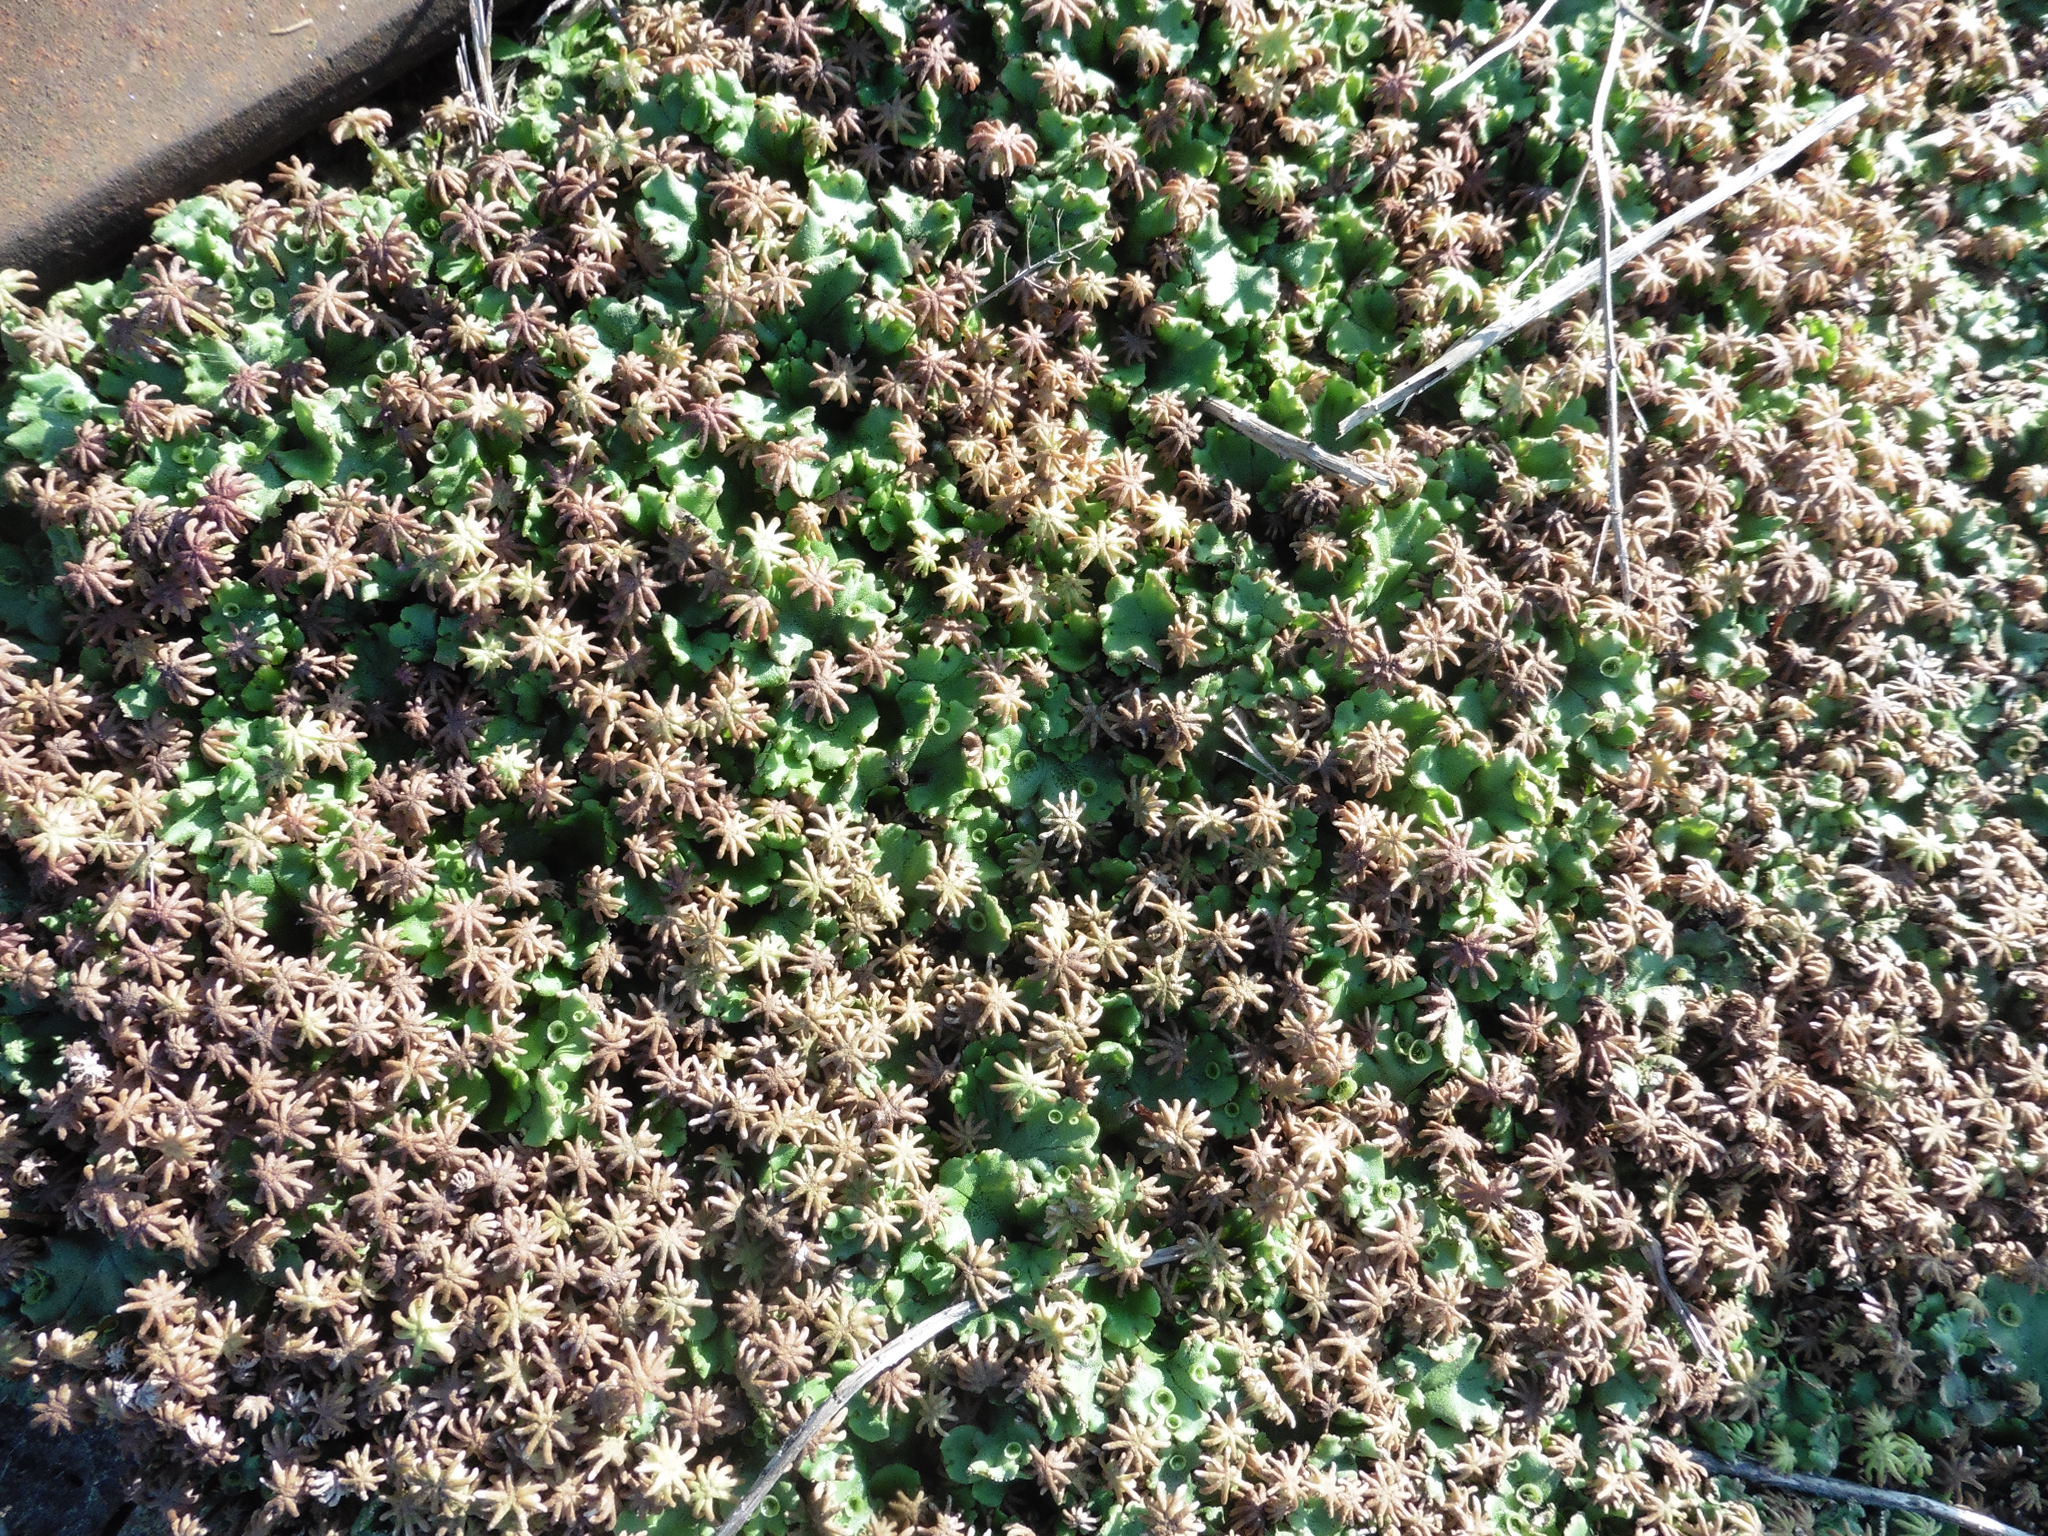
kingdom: Plantae
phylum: Marchantiophyta
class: Marchantiopsida
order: Marchantiales
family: Marchantiaceae
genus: Marchantia
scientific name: Marchantia polymorpha
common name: Common liverwort
